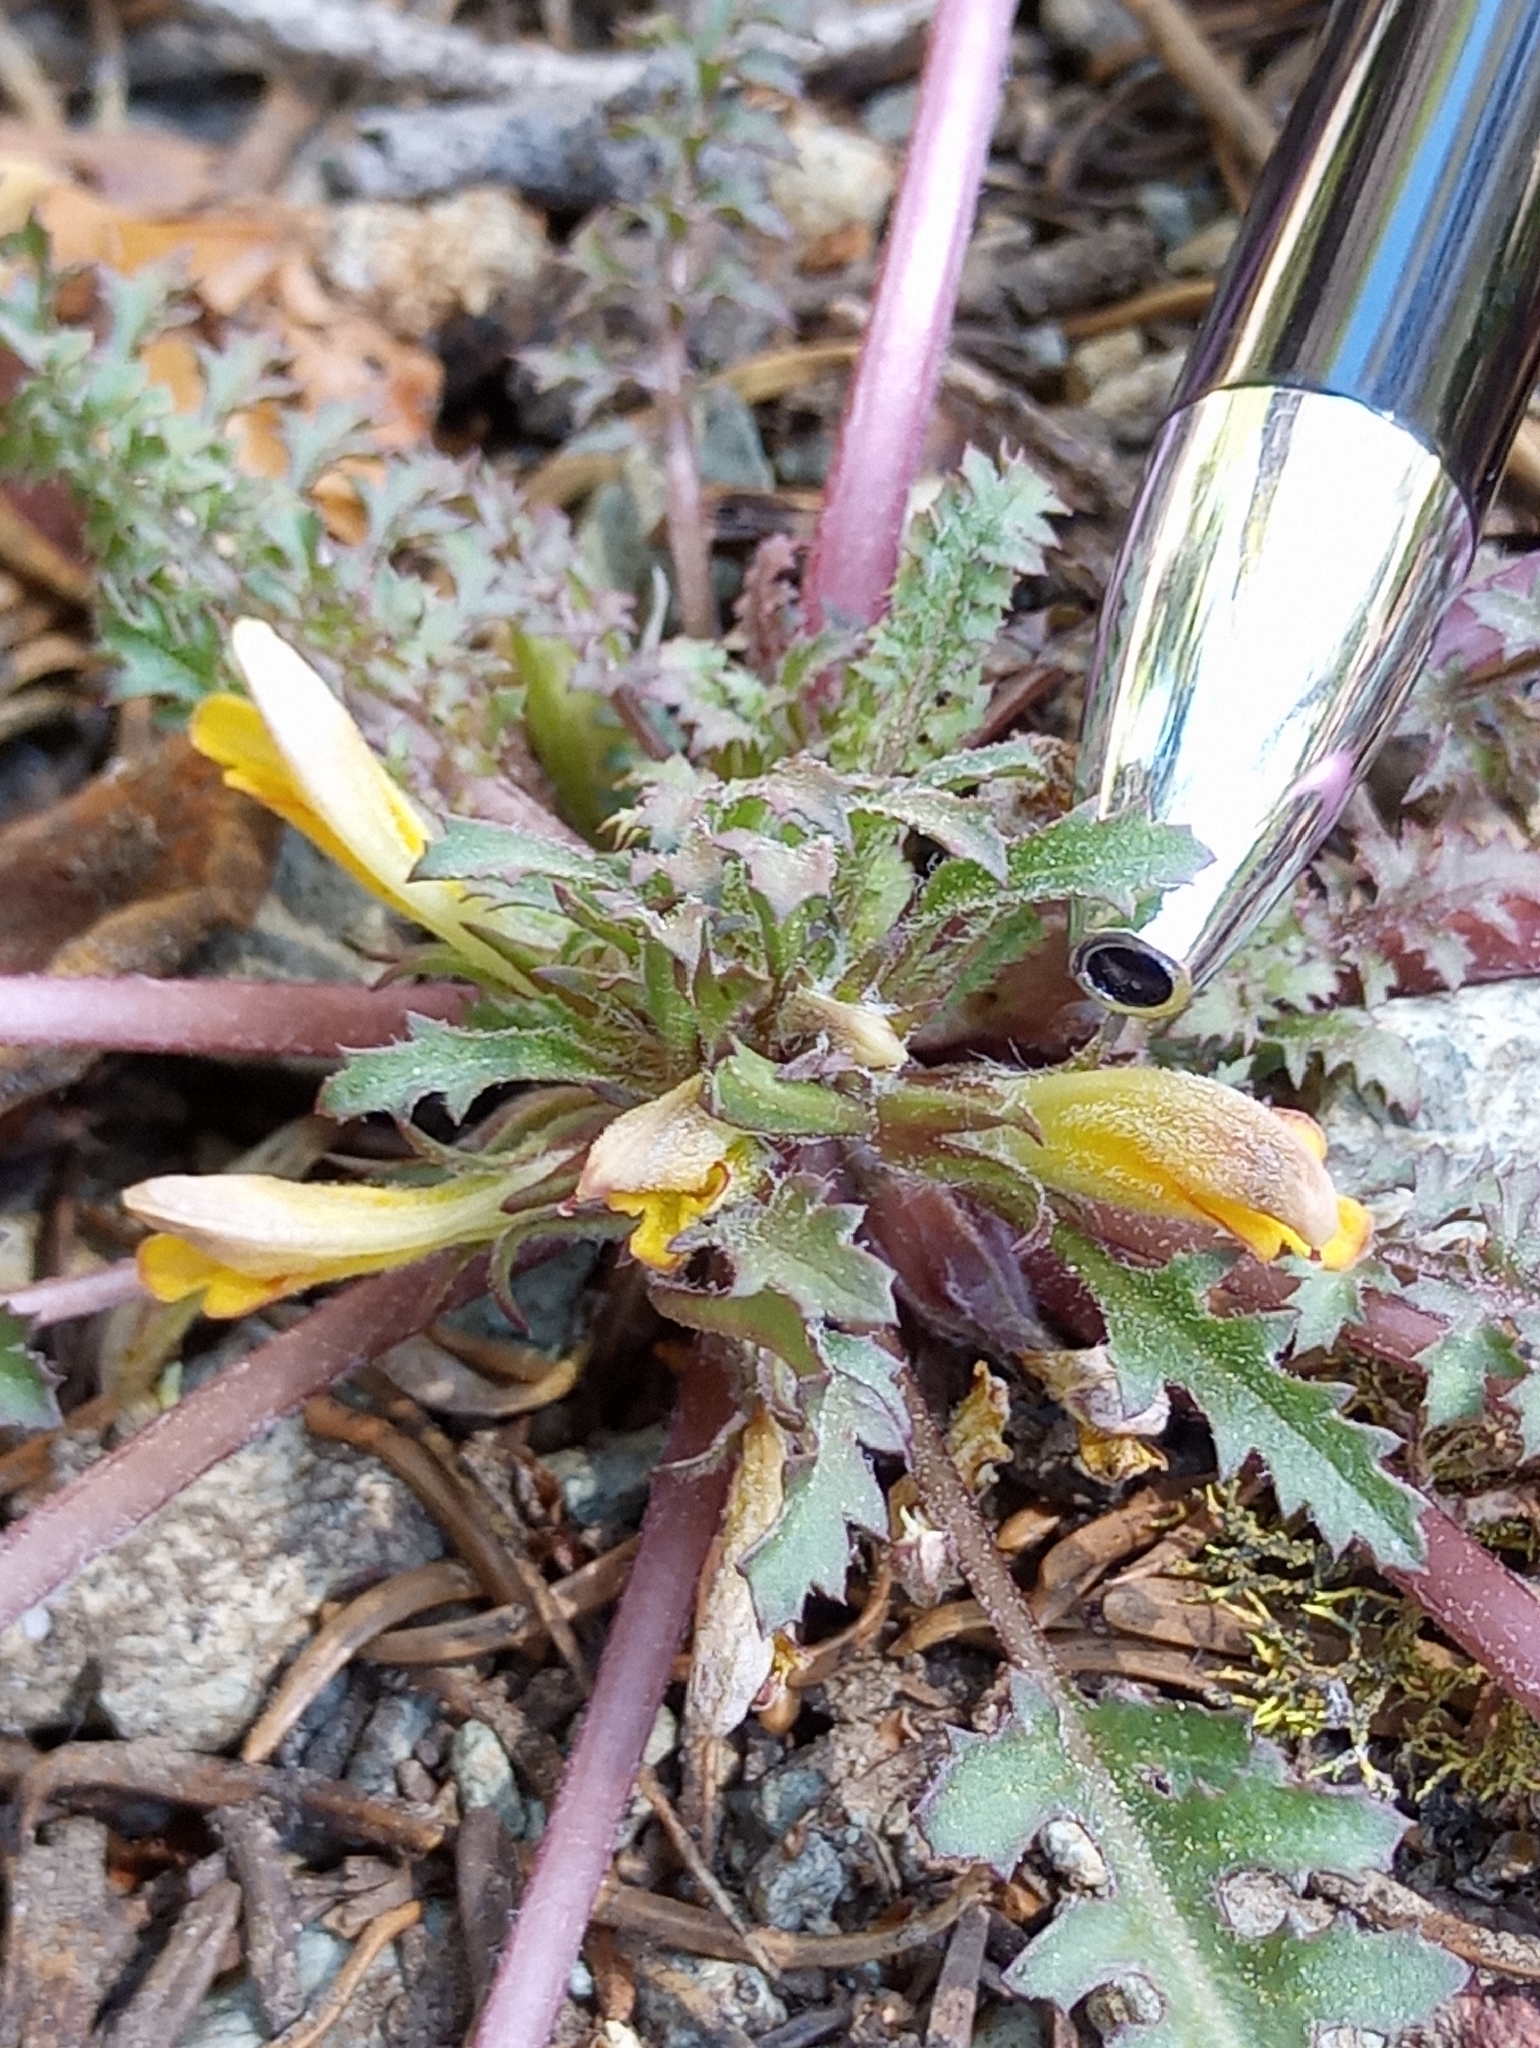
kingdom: Plantae
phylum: Tracheophyta
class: Magnoliopsida
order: Lamiales
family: Orobanchaceae
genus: Pedicularis
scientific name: Pedicularis semibarbata
